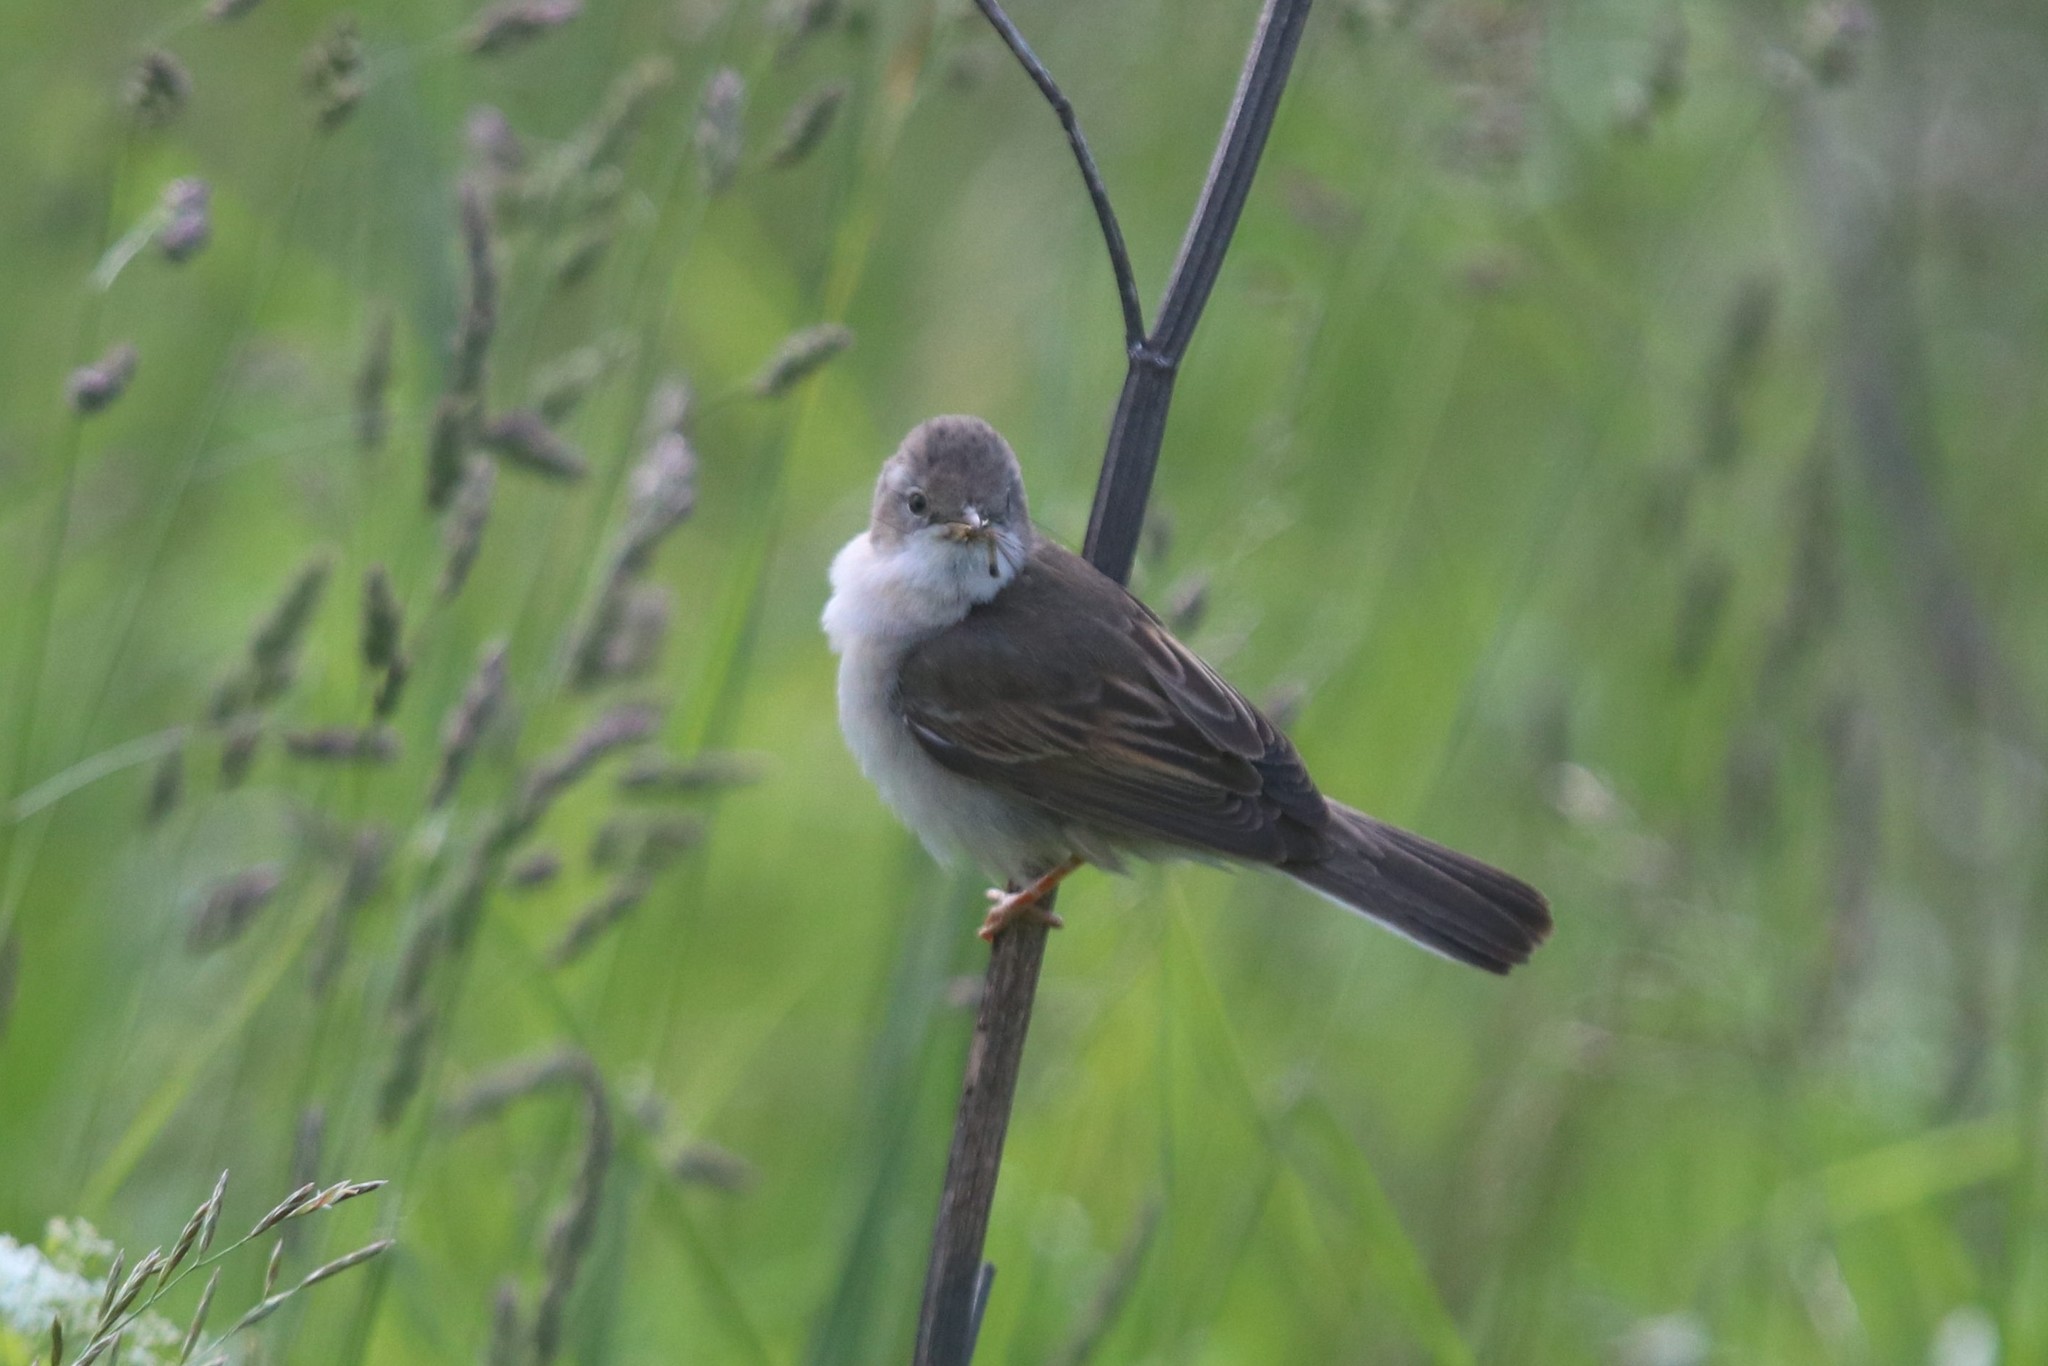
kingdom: Animalia
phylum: Chordata
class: Aves
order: Passeriformes
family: Sylviidae
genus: Sylvia
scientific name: Sylvia communis
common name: Common whitethroat
